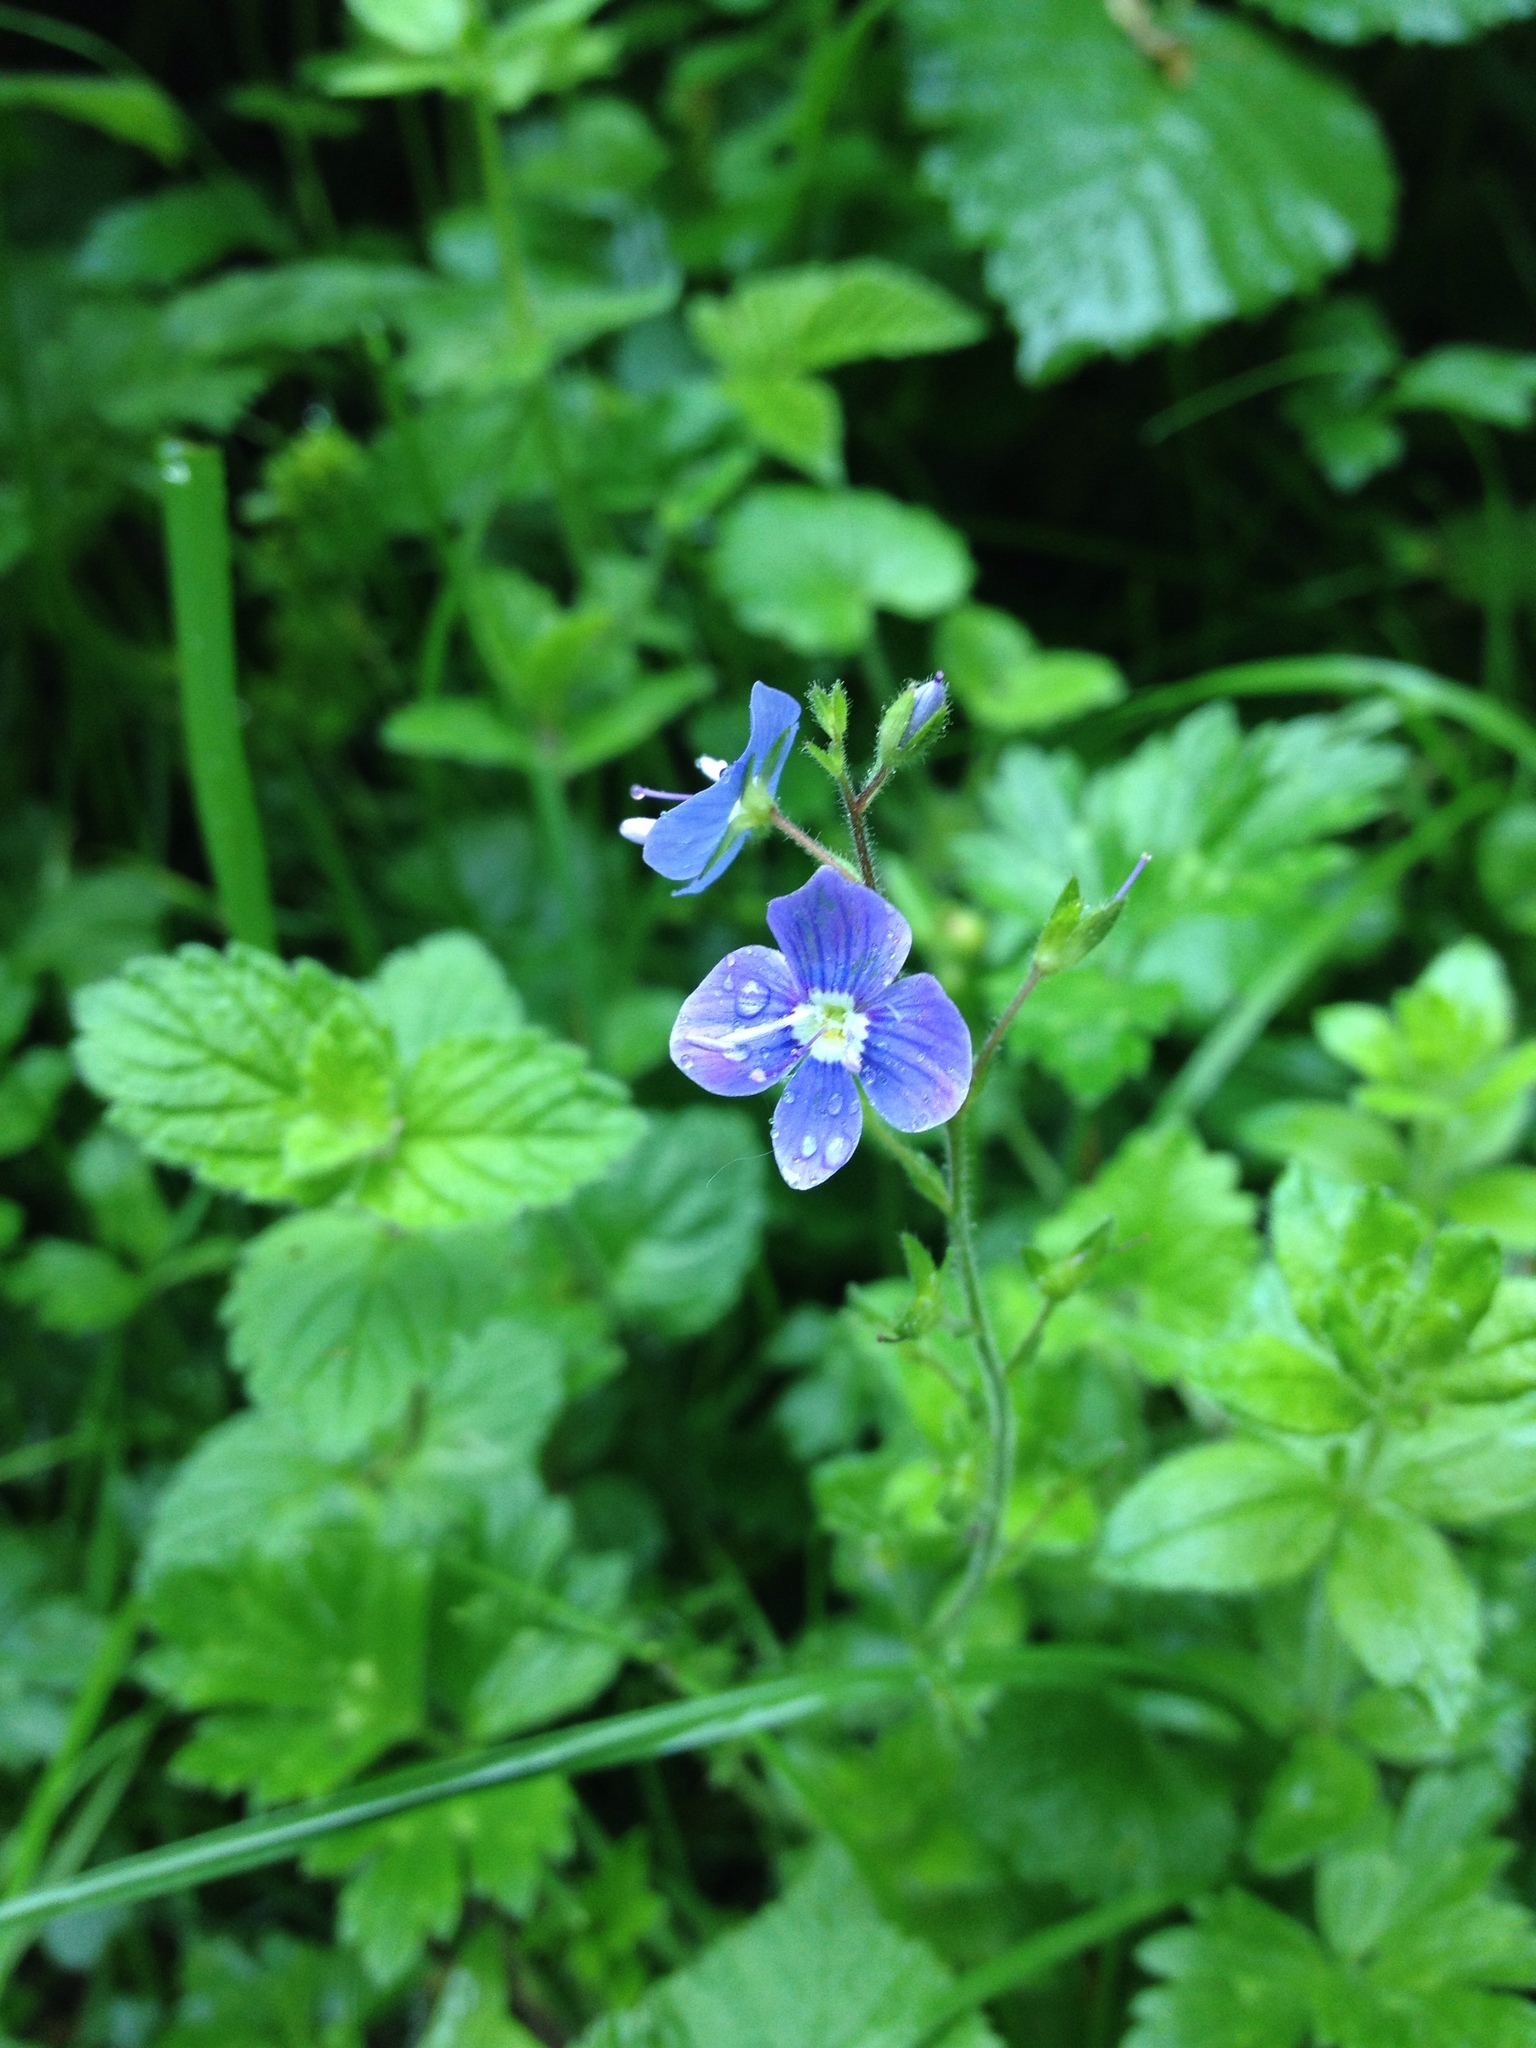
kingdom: Plantae
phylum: Tracheophyta
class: Magnoliopsida
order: Lamiales
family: Plantaginaceae
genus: Veronica
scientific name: Veronica chamaedrys
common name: Germander speedwell
